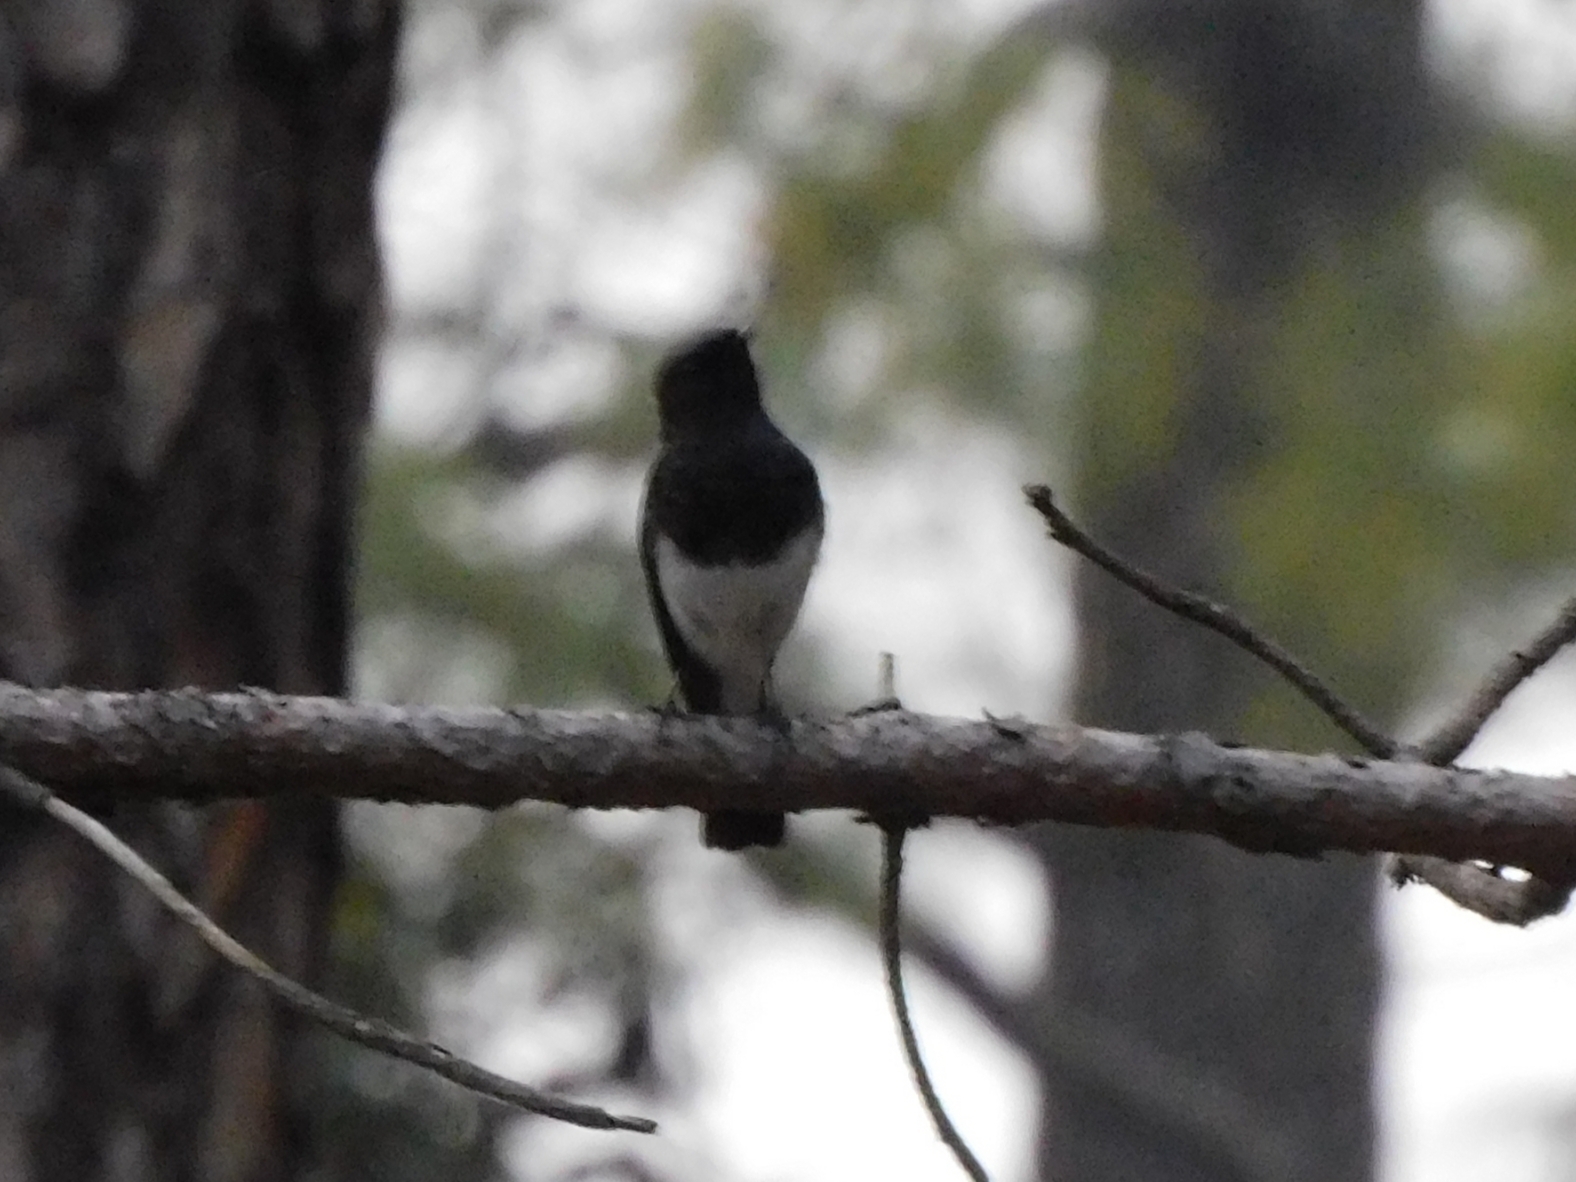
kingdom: Animalia
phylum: Chordata
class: Aves
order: Passeriformes
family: Muscicapidae
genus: Phoenicurus
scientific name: Phoenicurus coeruleocephala
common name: Blue-capped redstart
